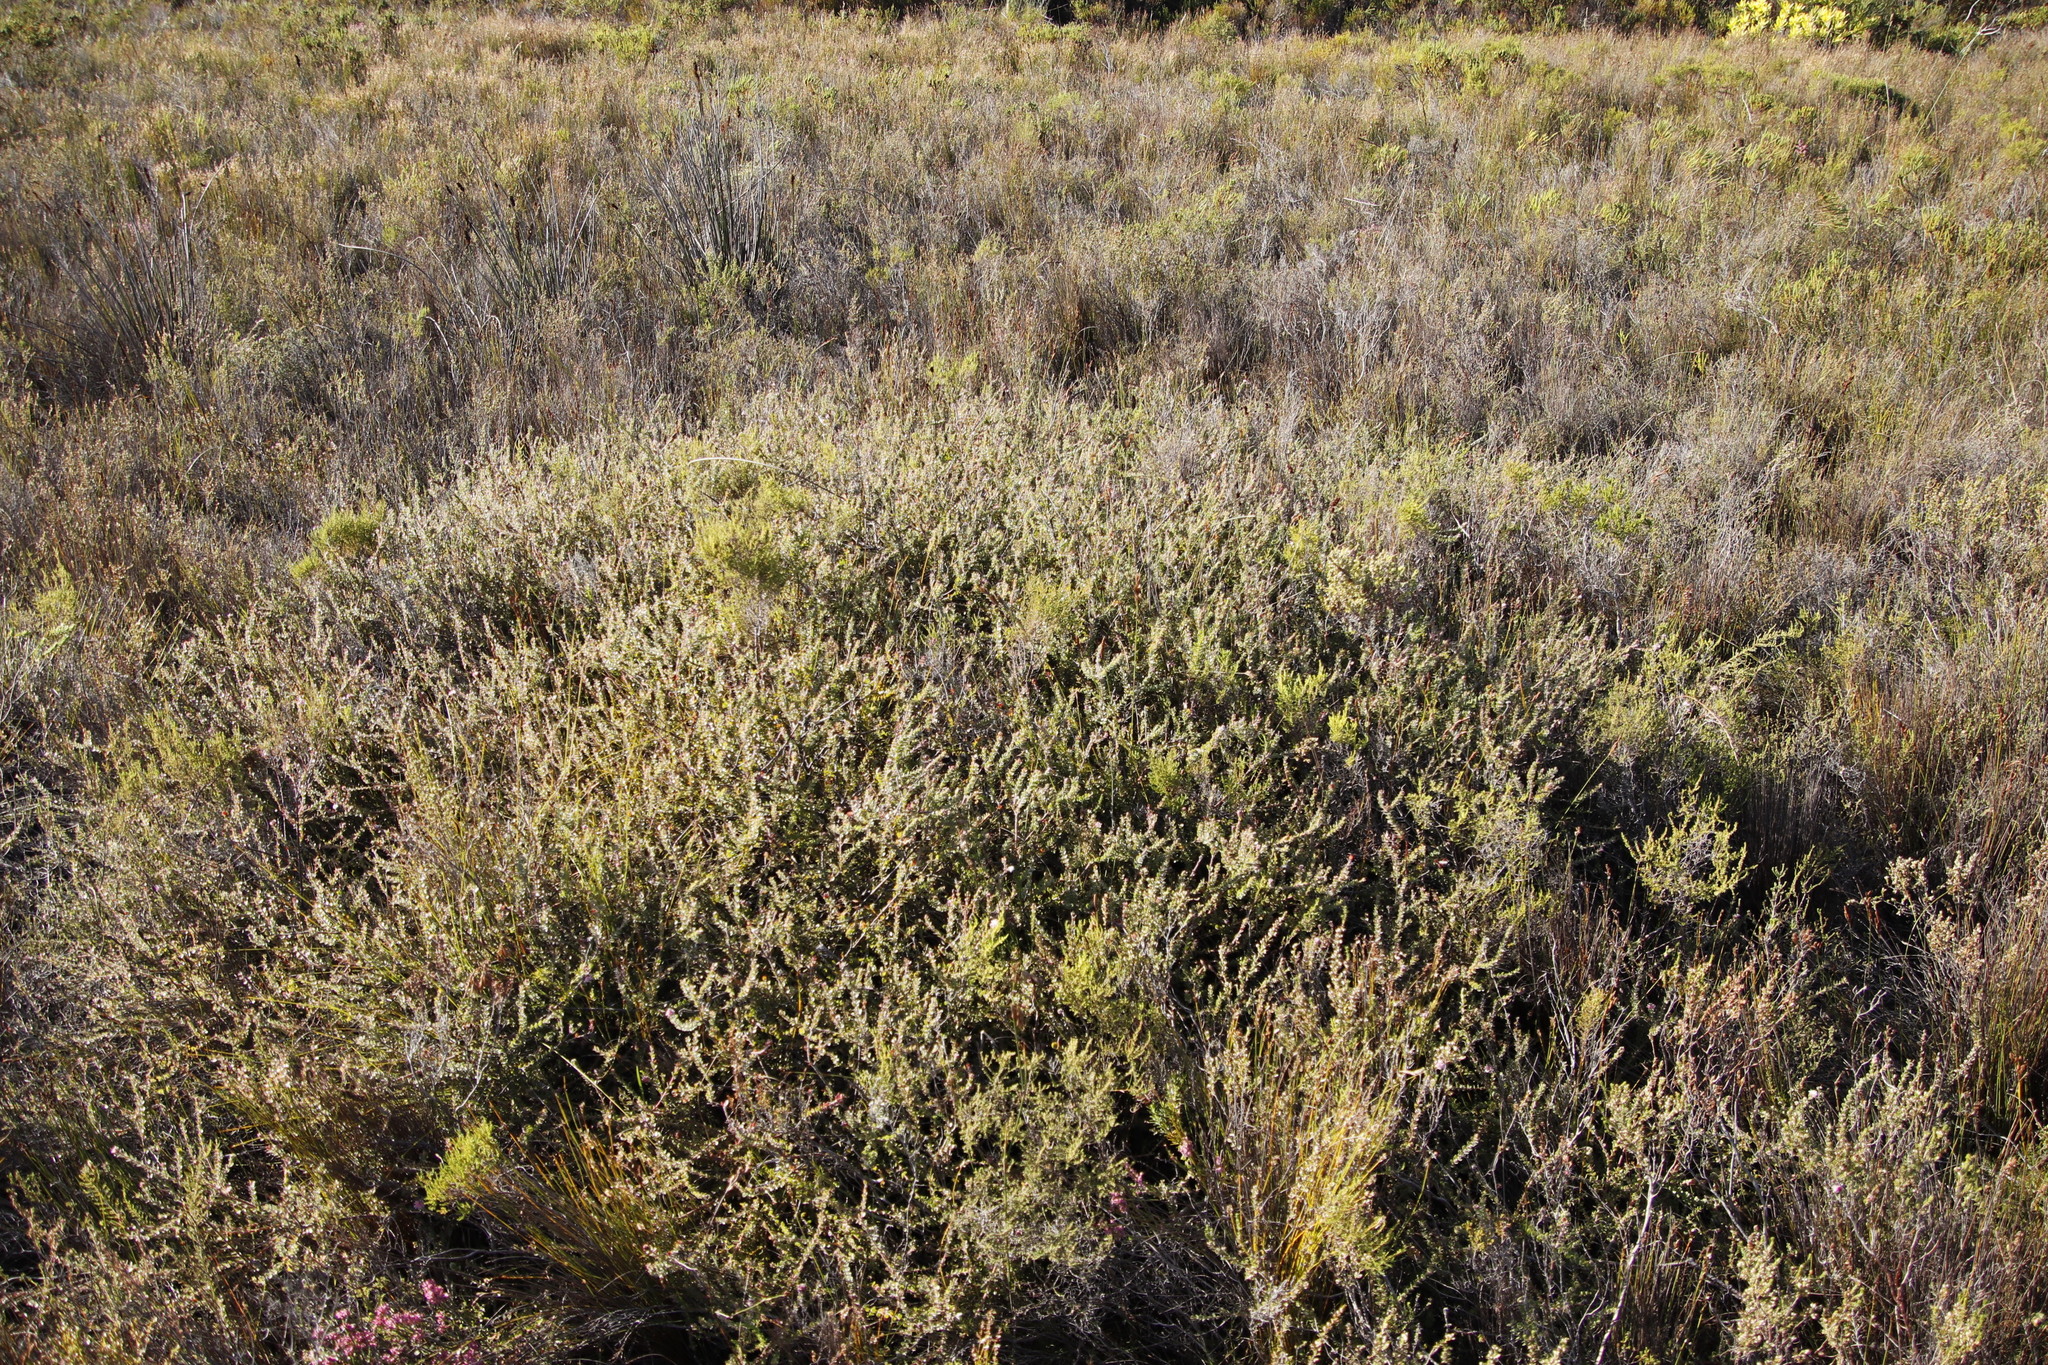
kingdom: Plantae
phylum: Tracheophyta
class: Magnoliopsida
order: Proteales
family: Proteaceae
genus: Diastella
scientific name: Diastella divaricata
